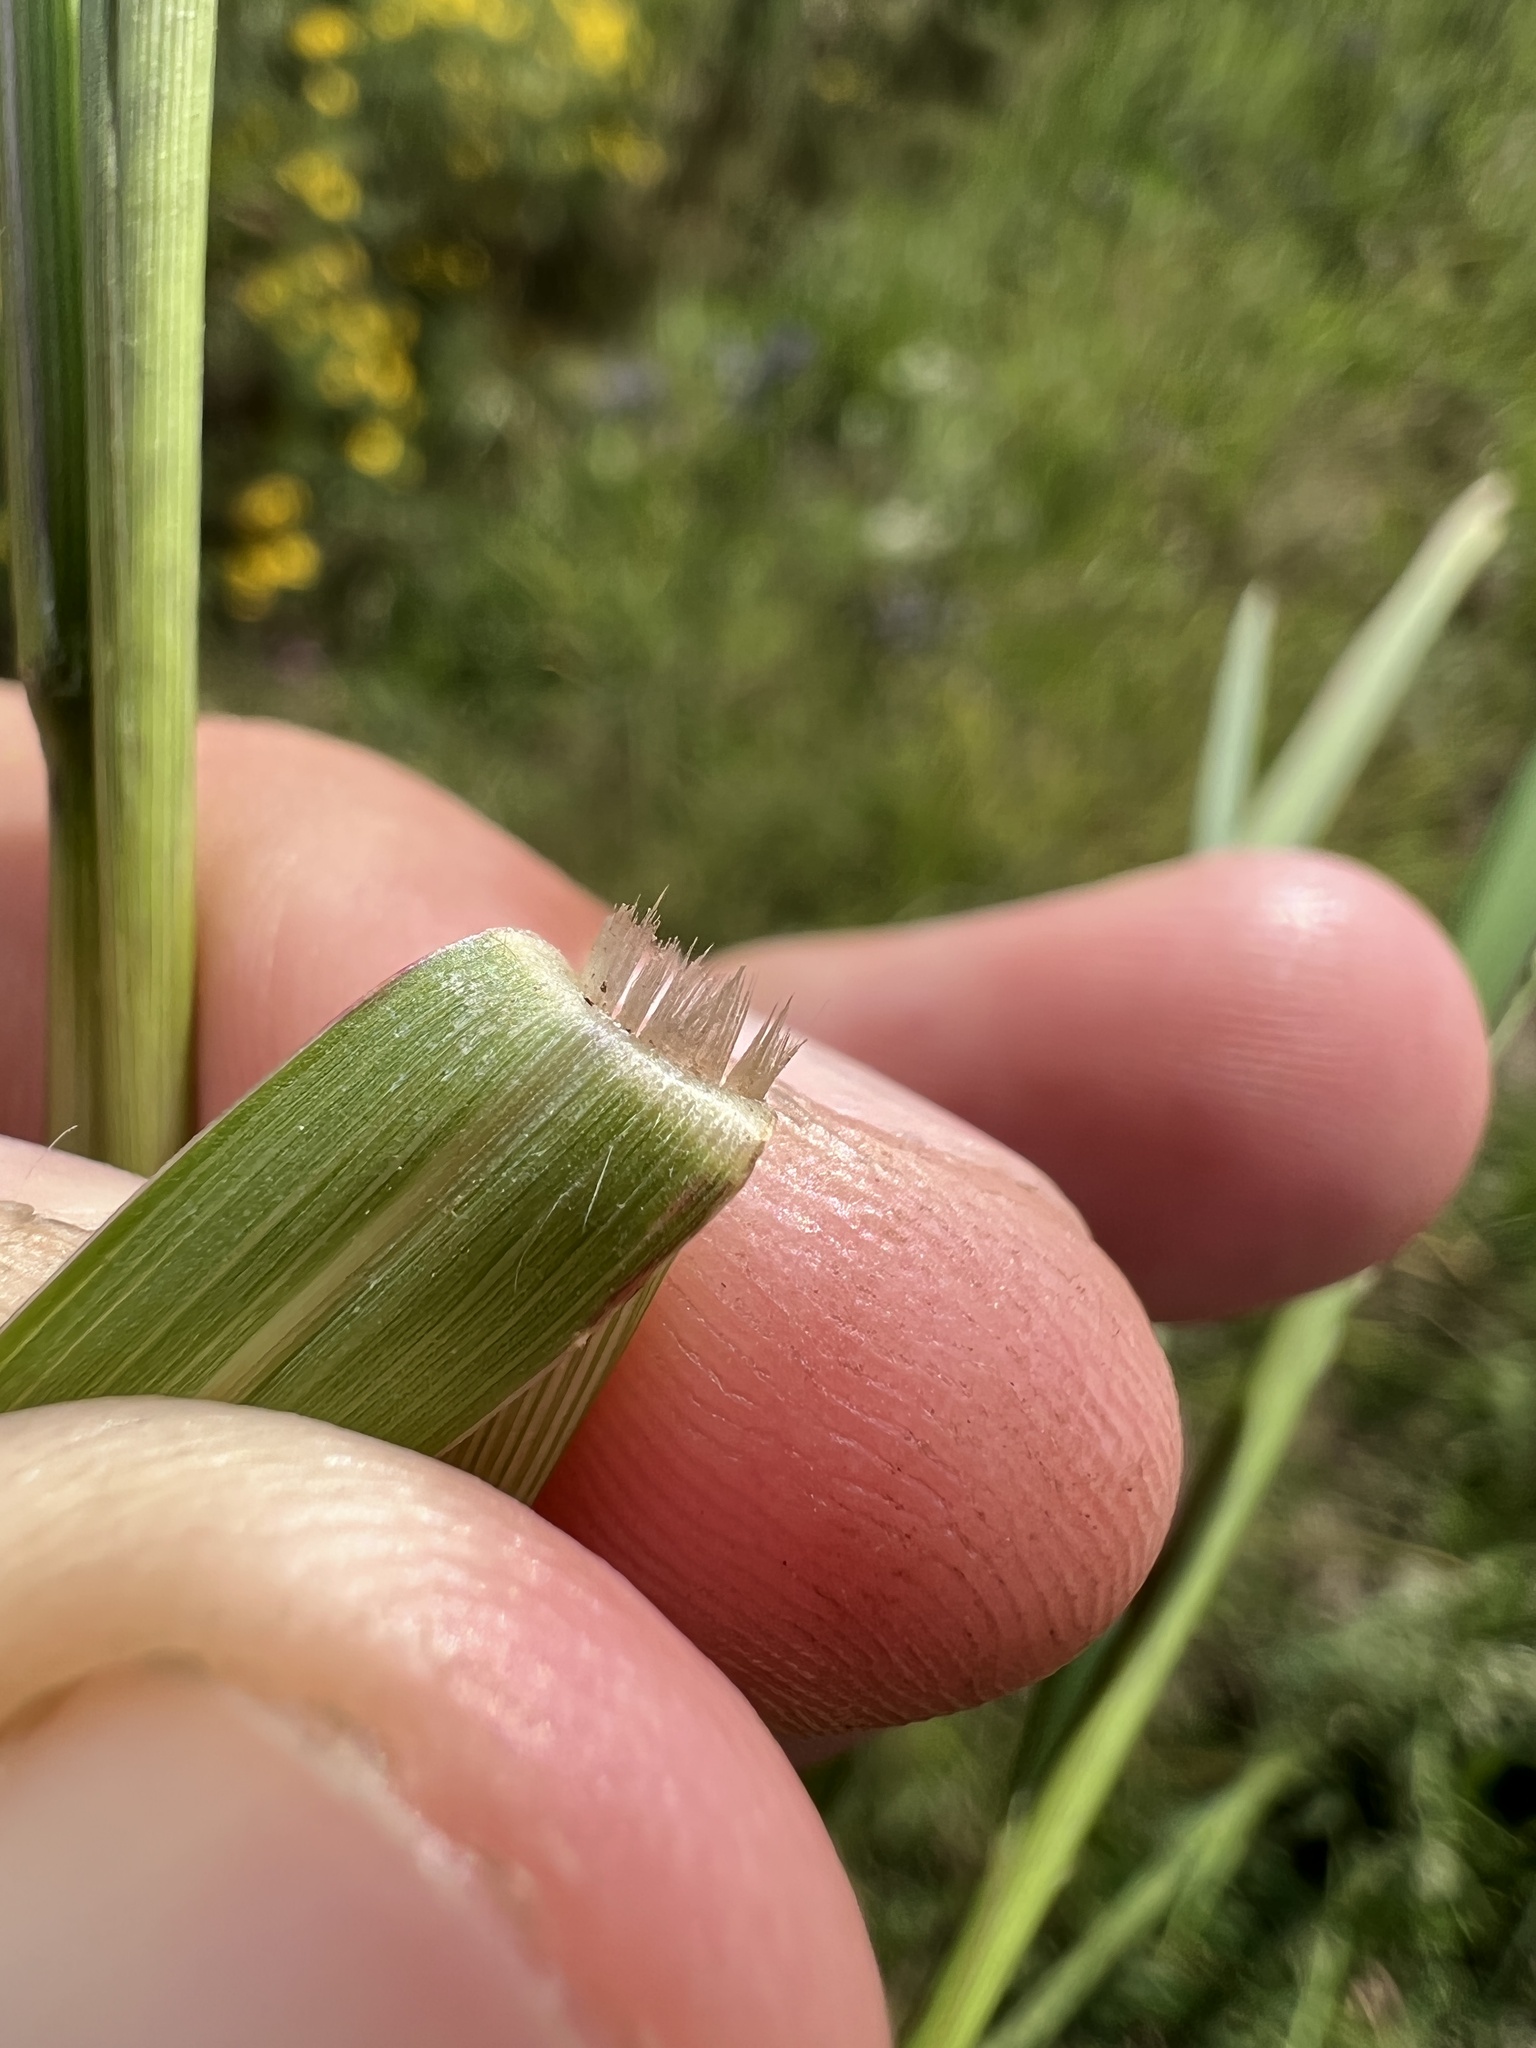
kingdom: Plantae
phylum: Tracheophyta
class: Liliopsida
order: Poales
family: Poaceae
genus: Panicum
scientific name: Panicum dichotomiflorum
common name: Autumn millet
